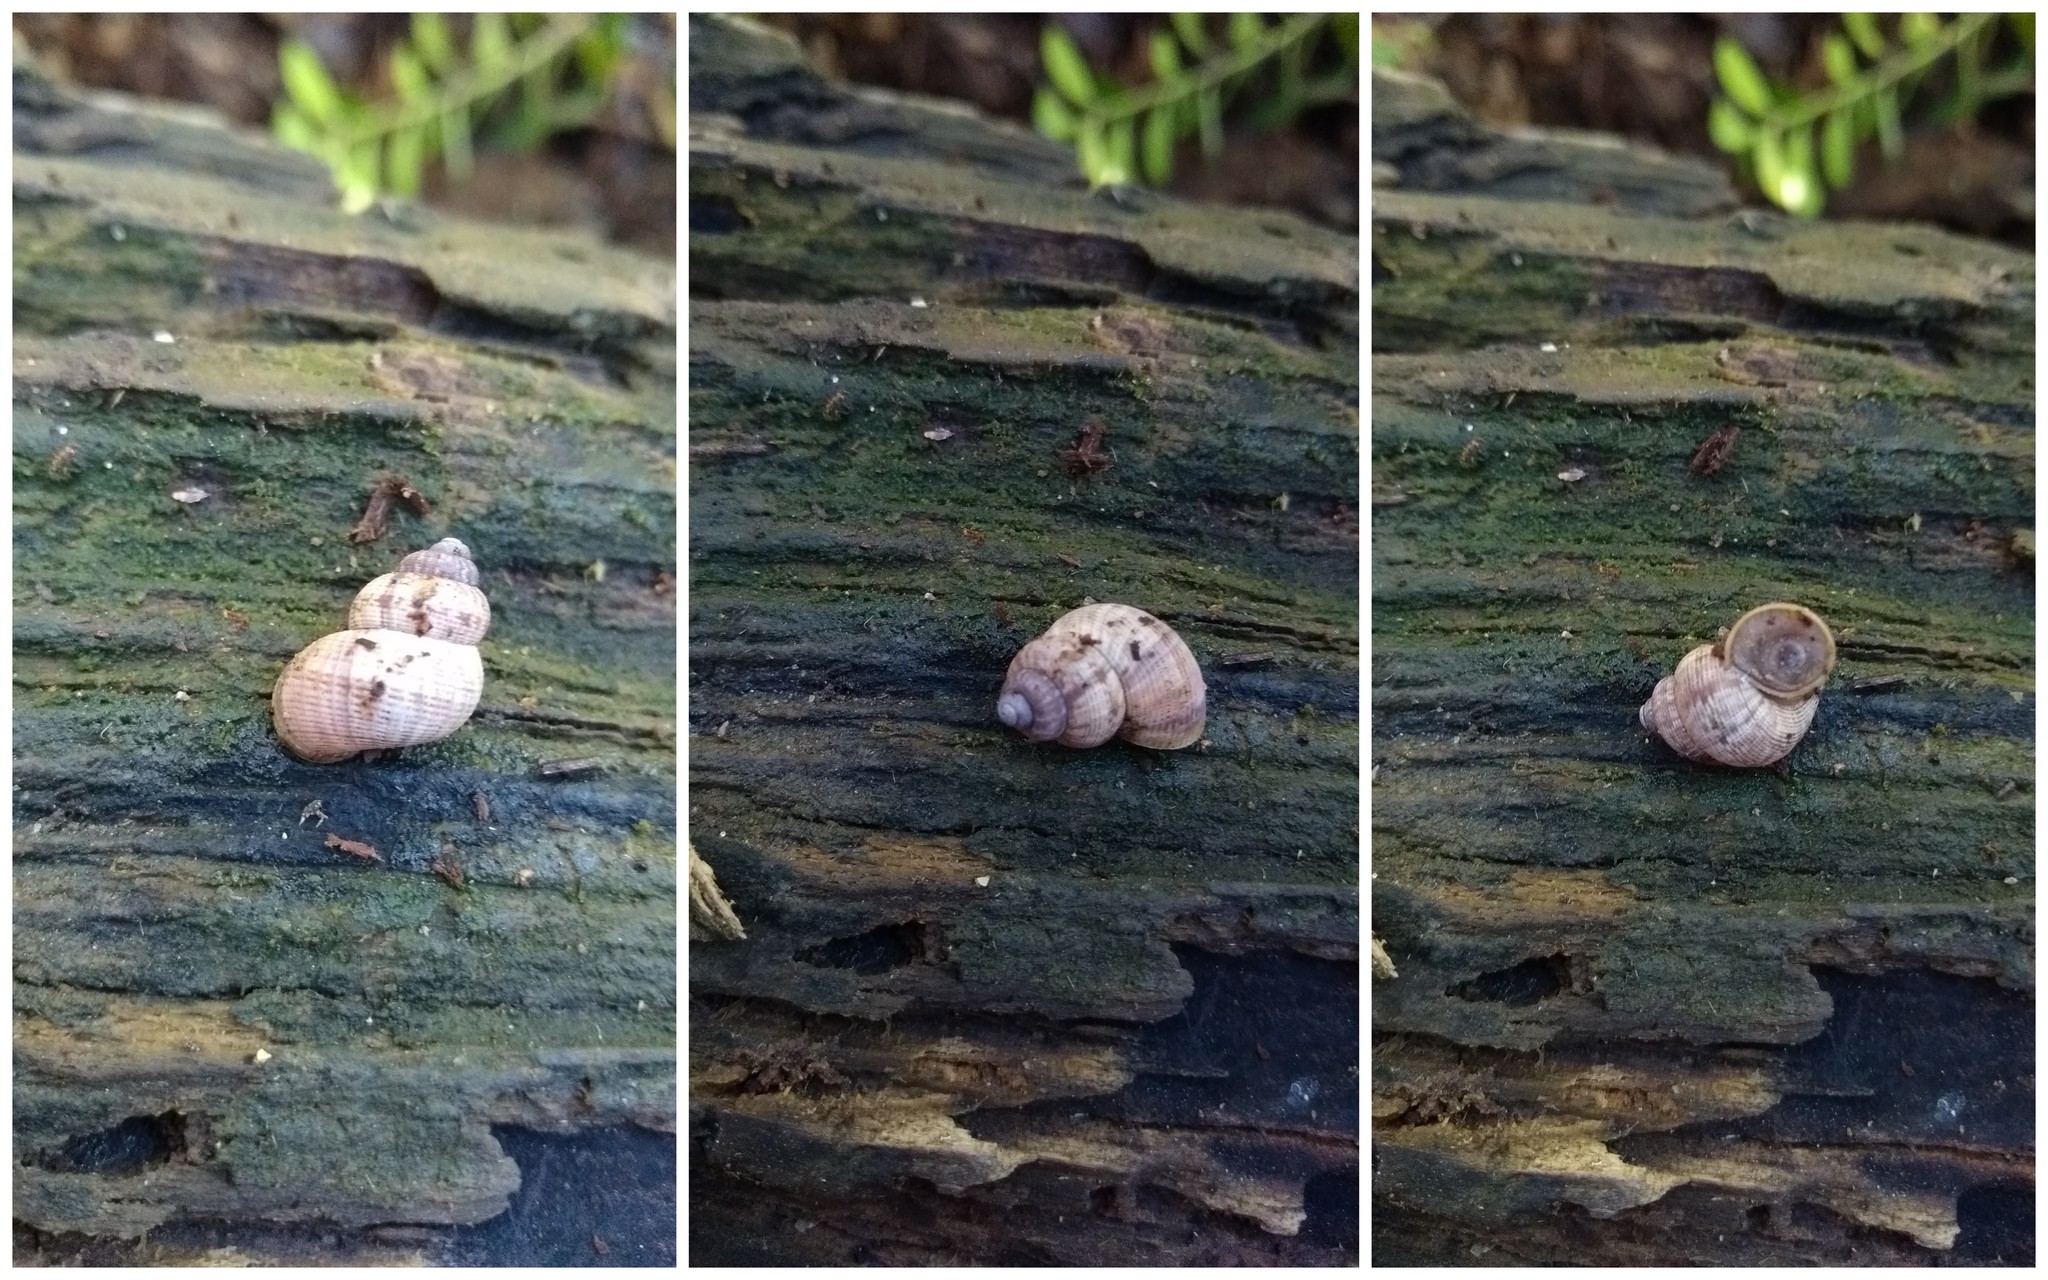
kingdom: Animalia
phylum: Mollusca
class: Gastropoda
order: Littorinimorpha
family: Pomatiidae
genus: Pomatias
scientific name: Pomatias elegans
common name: Red-mouthed snail
